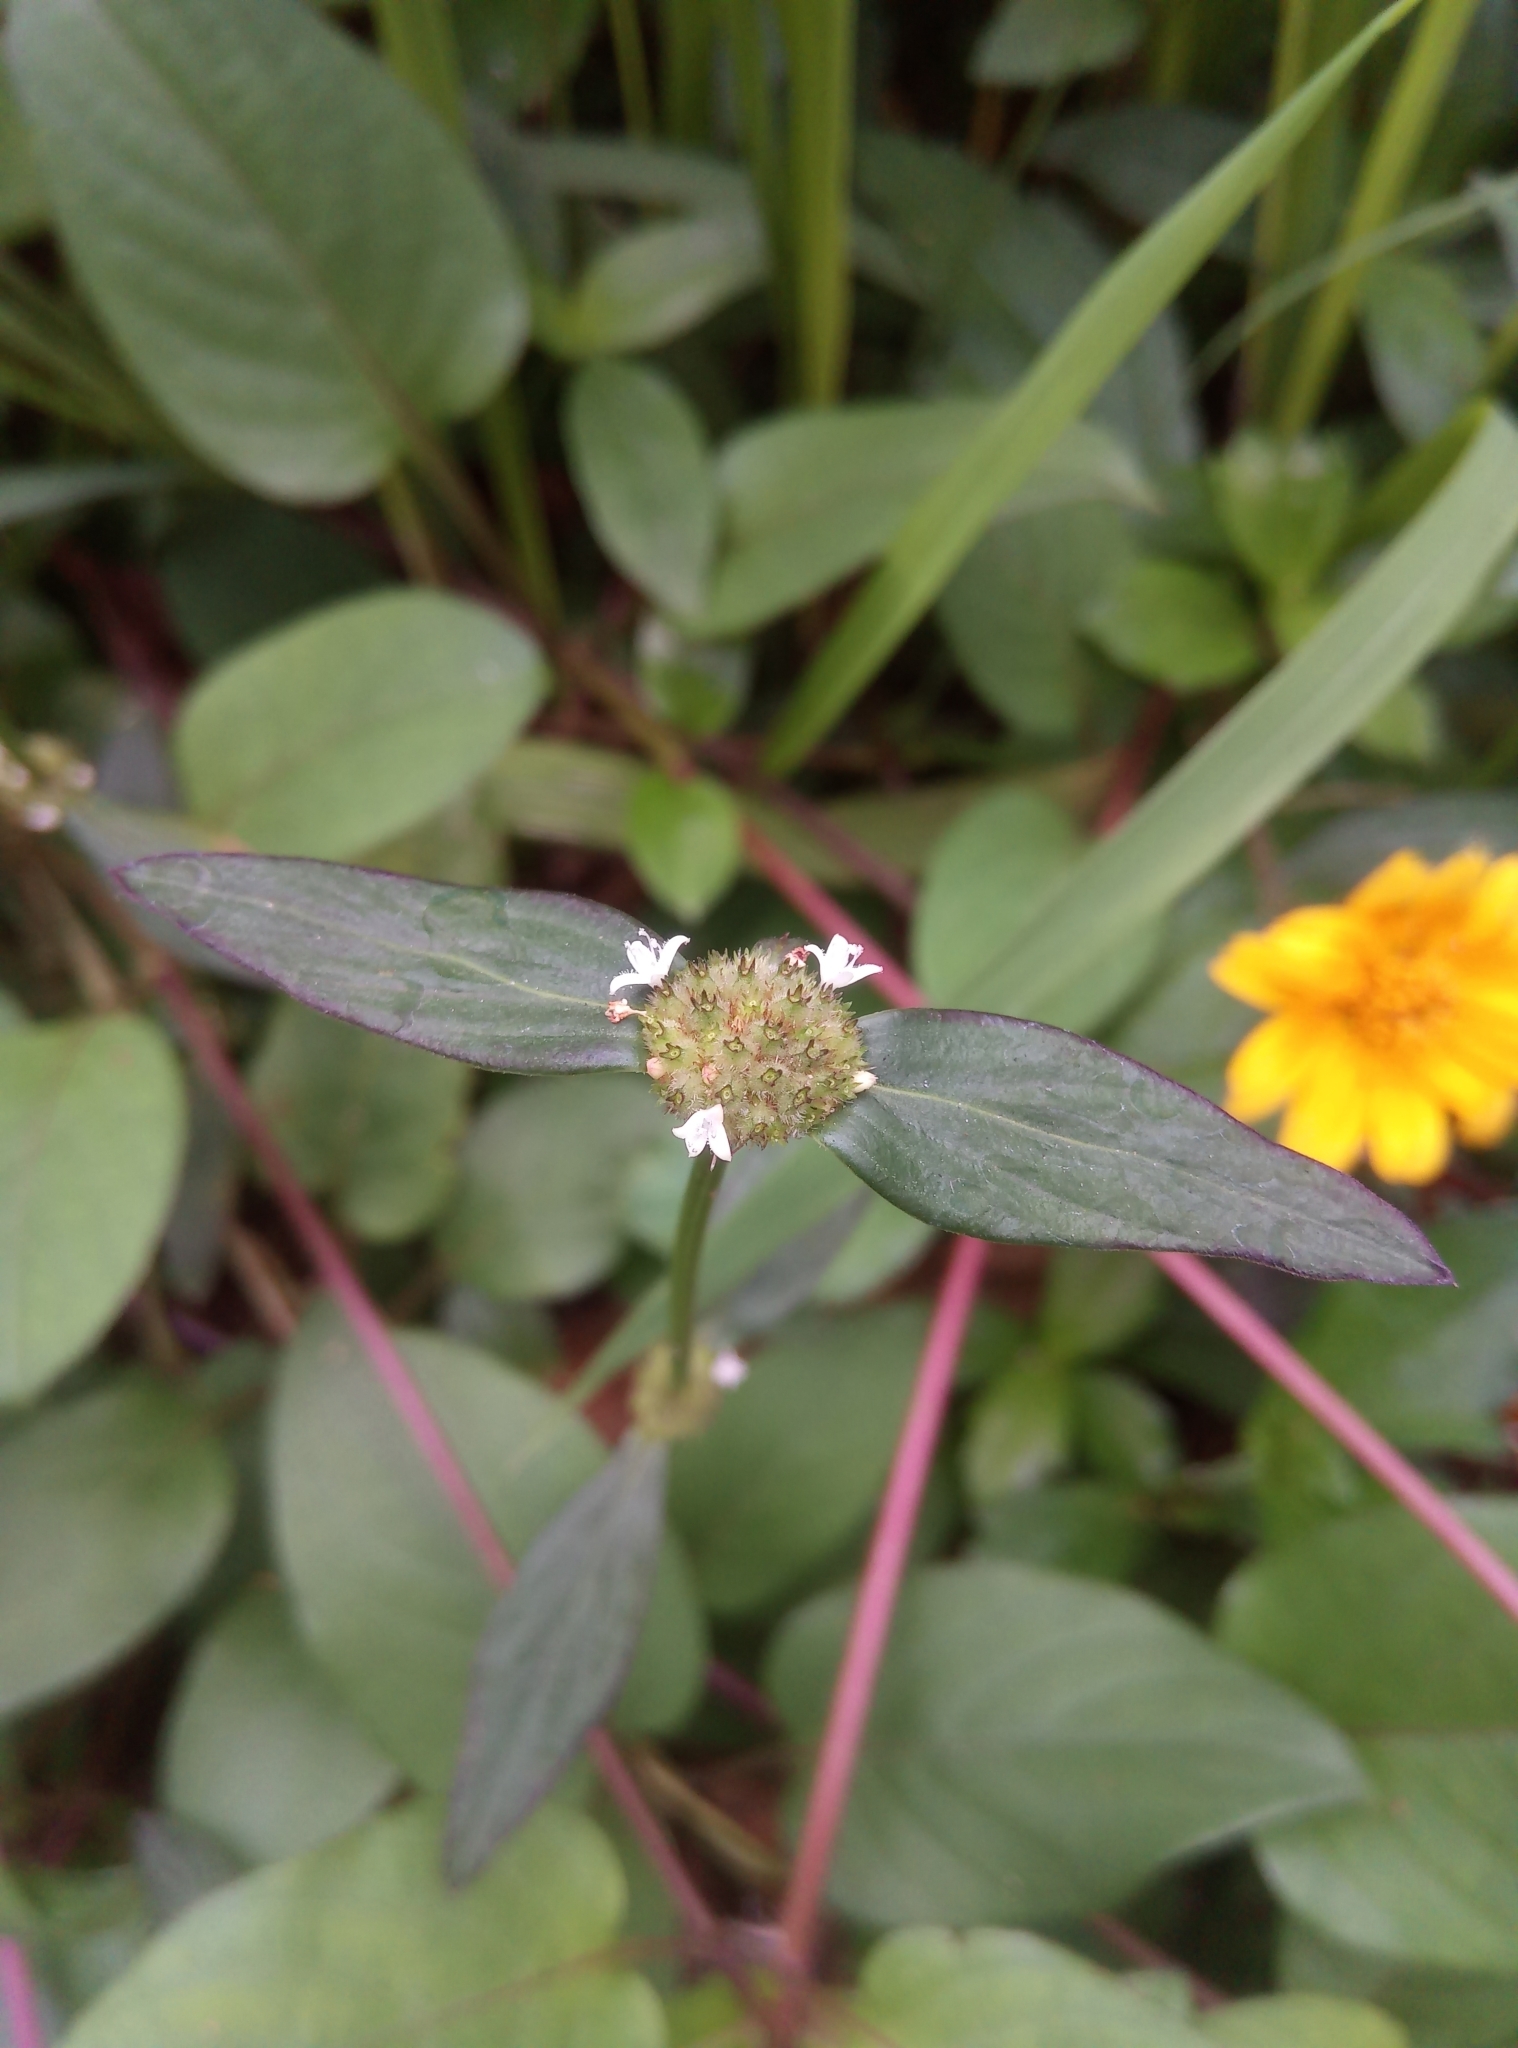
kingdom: Plantae
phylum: Tracheophyta
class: Magnoliopsida
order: Gentianales
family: Rubiaceae
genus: Spermacoce
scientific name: Spermacoce remota
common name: Woodland false buttonweed
